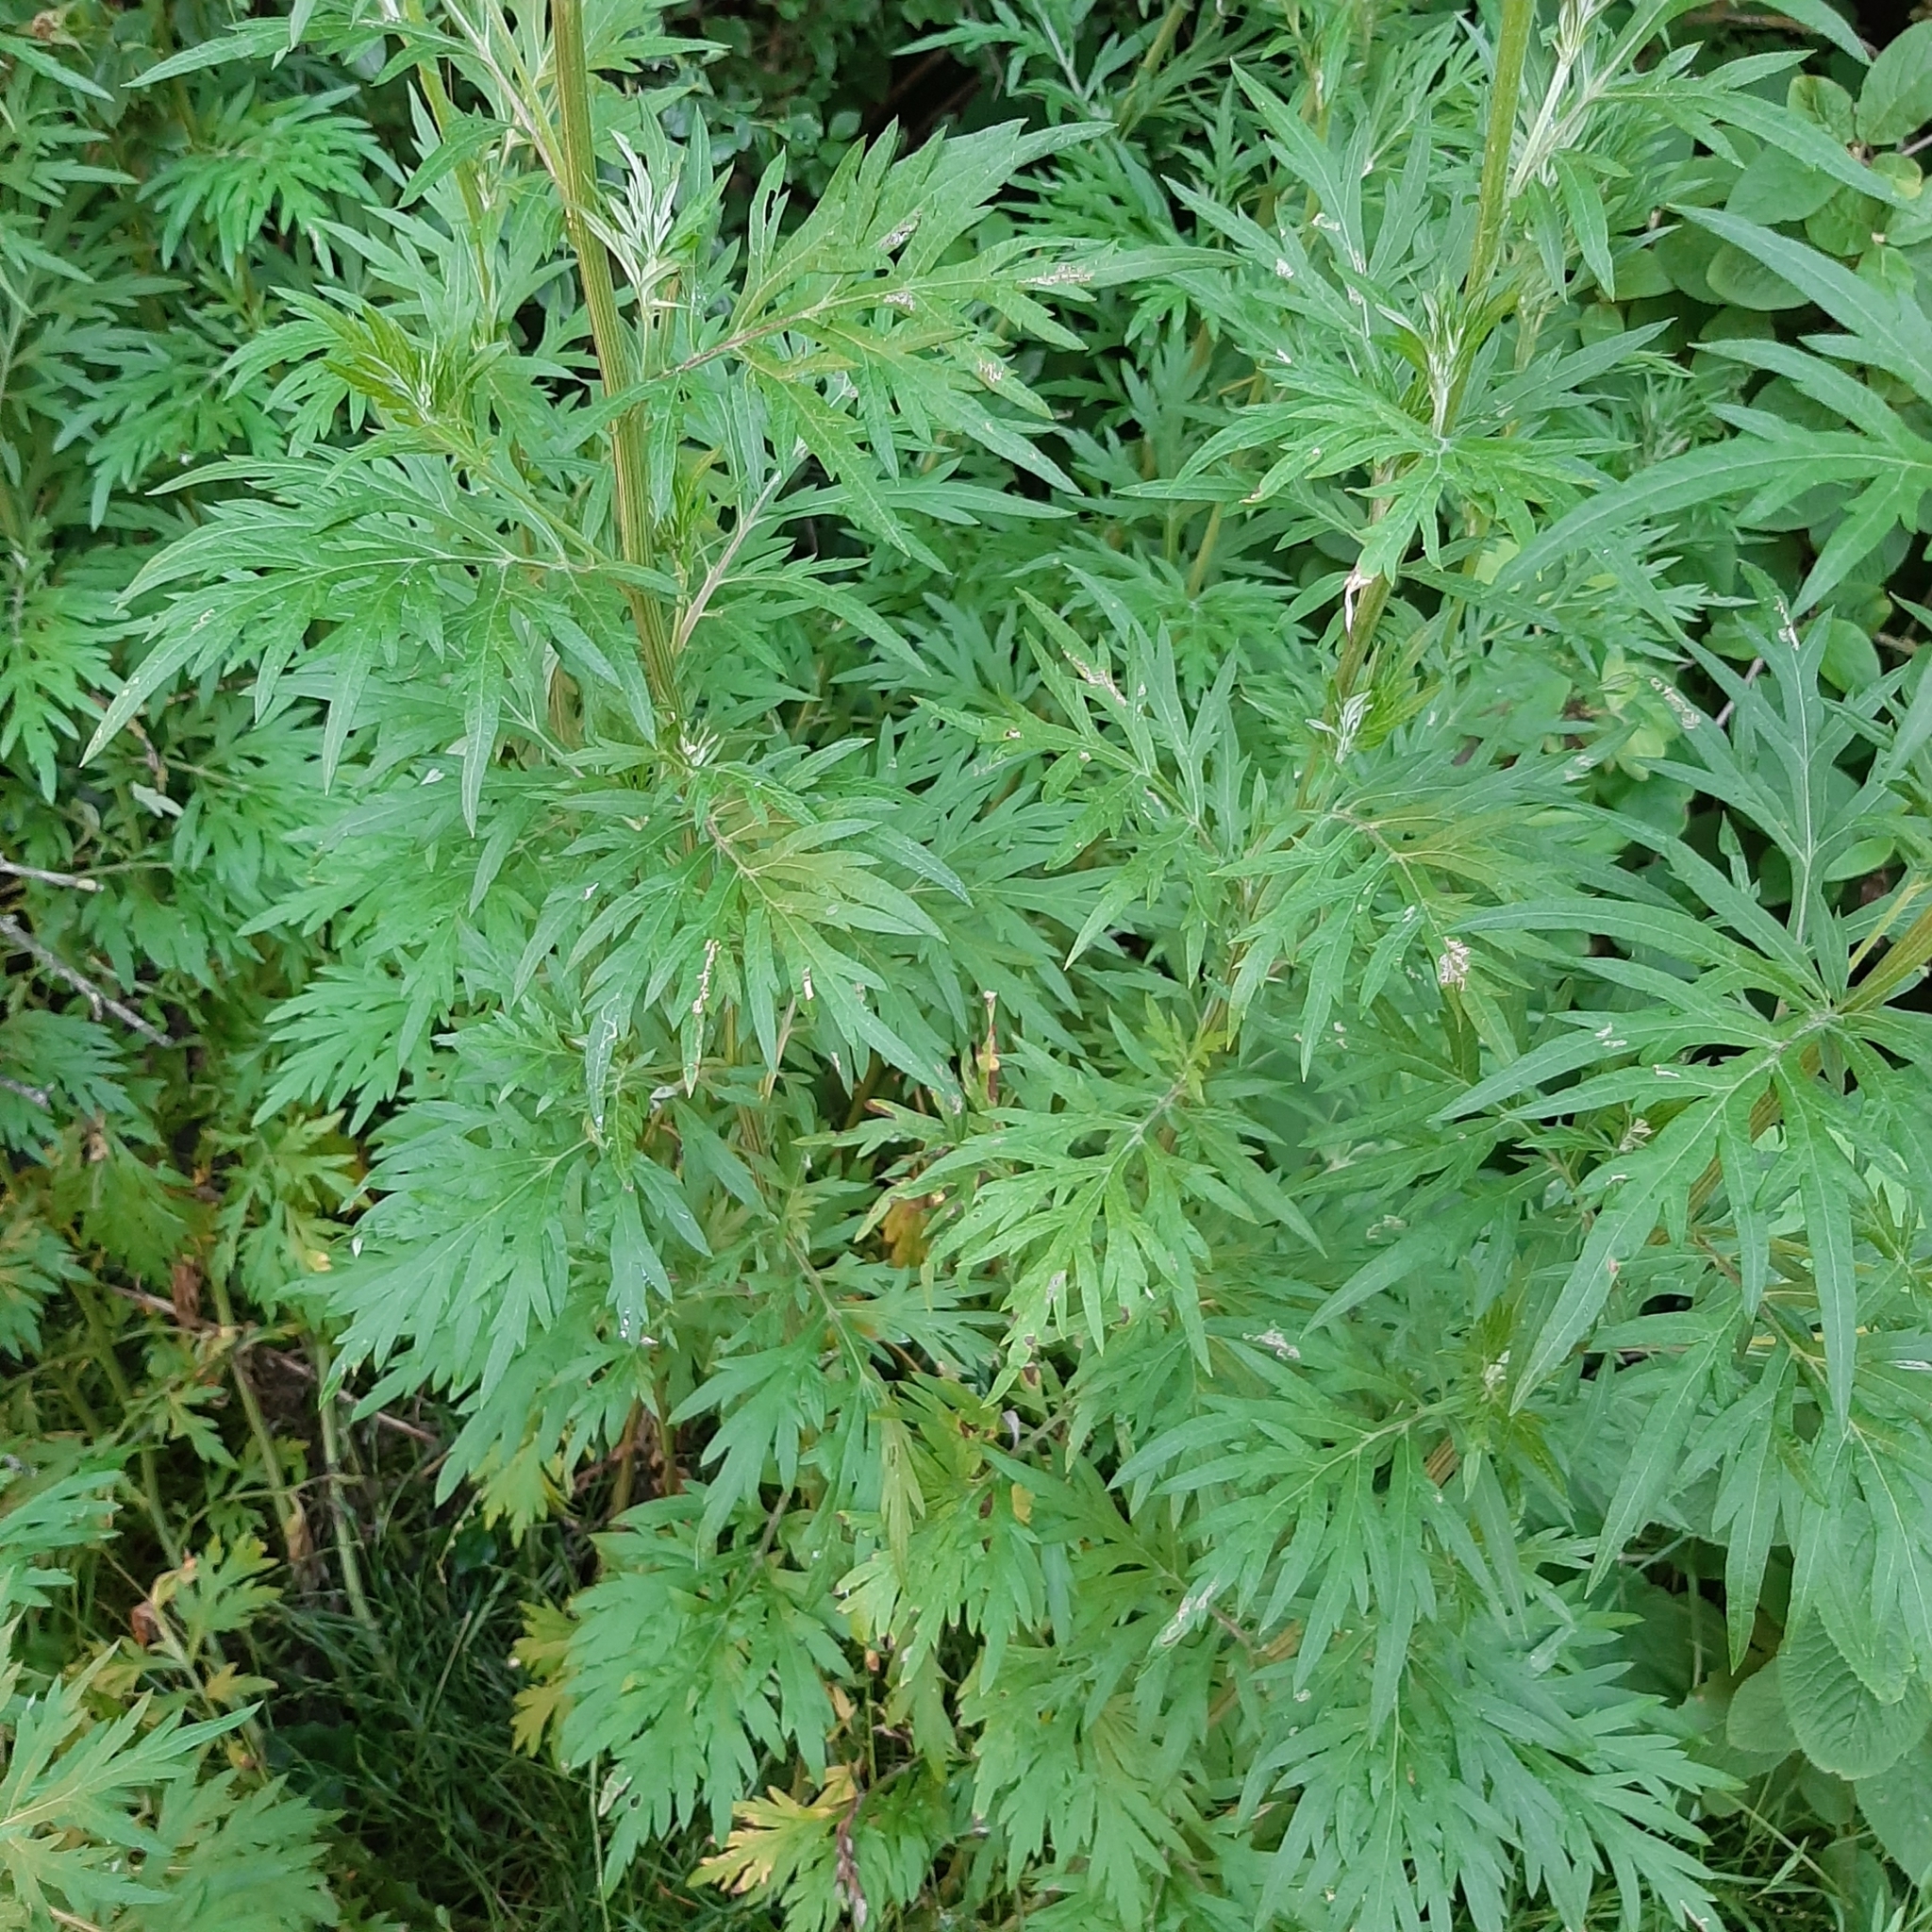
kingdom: Plantae
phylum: Tracheophyta
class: Magnoliopsida
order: Asterales
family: Asteraceae
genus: Artemisia
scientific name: Artemisia vulgaris
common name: Mugwort
